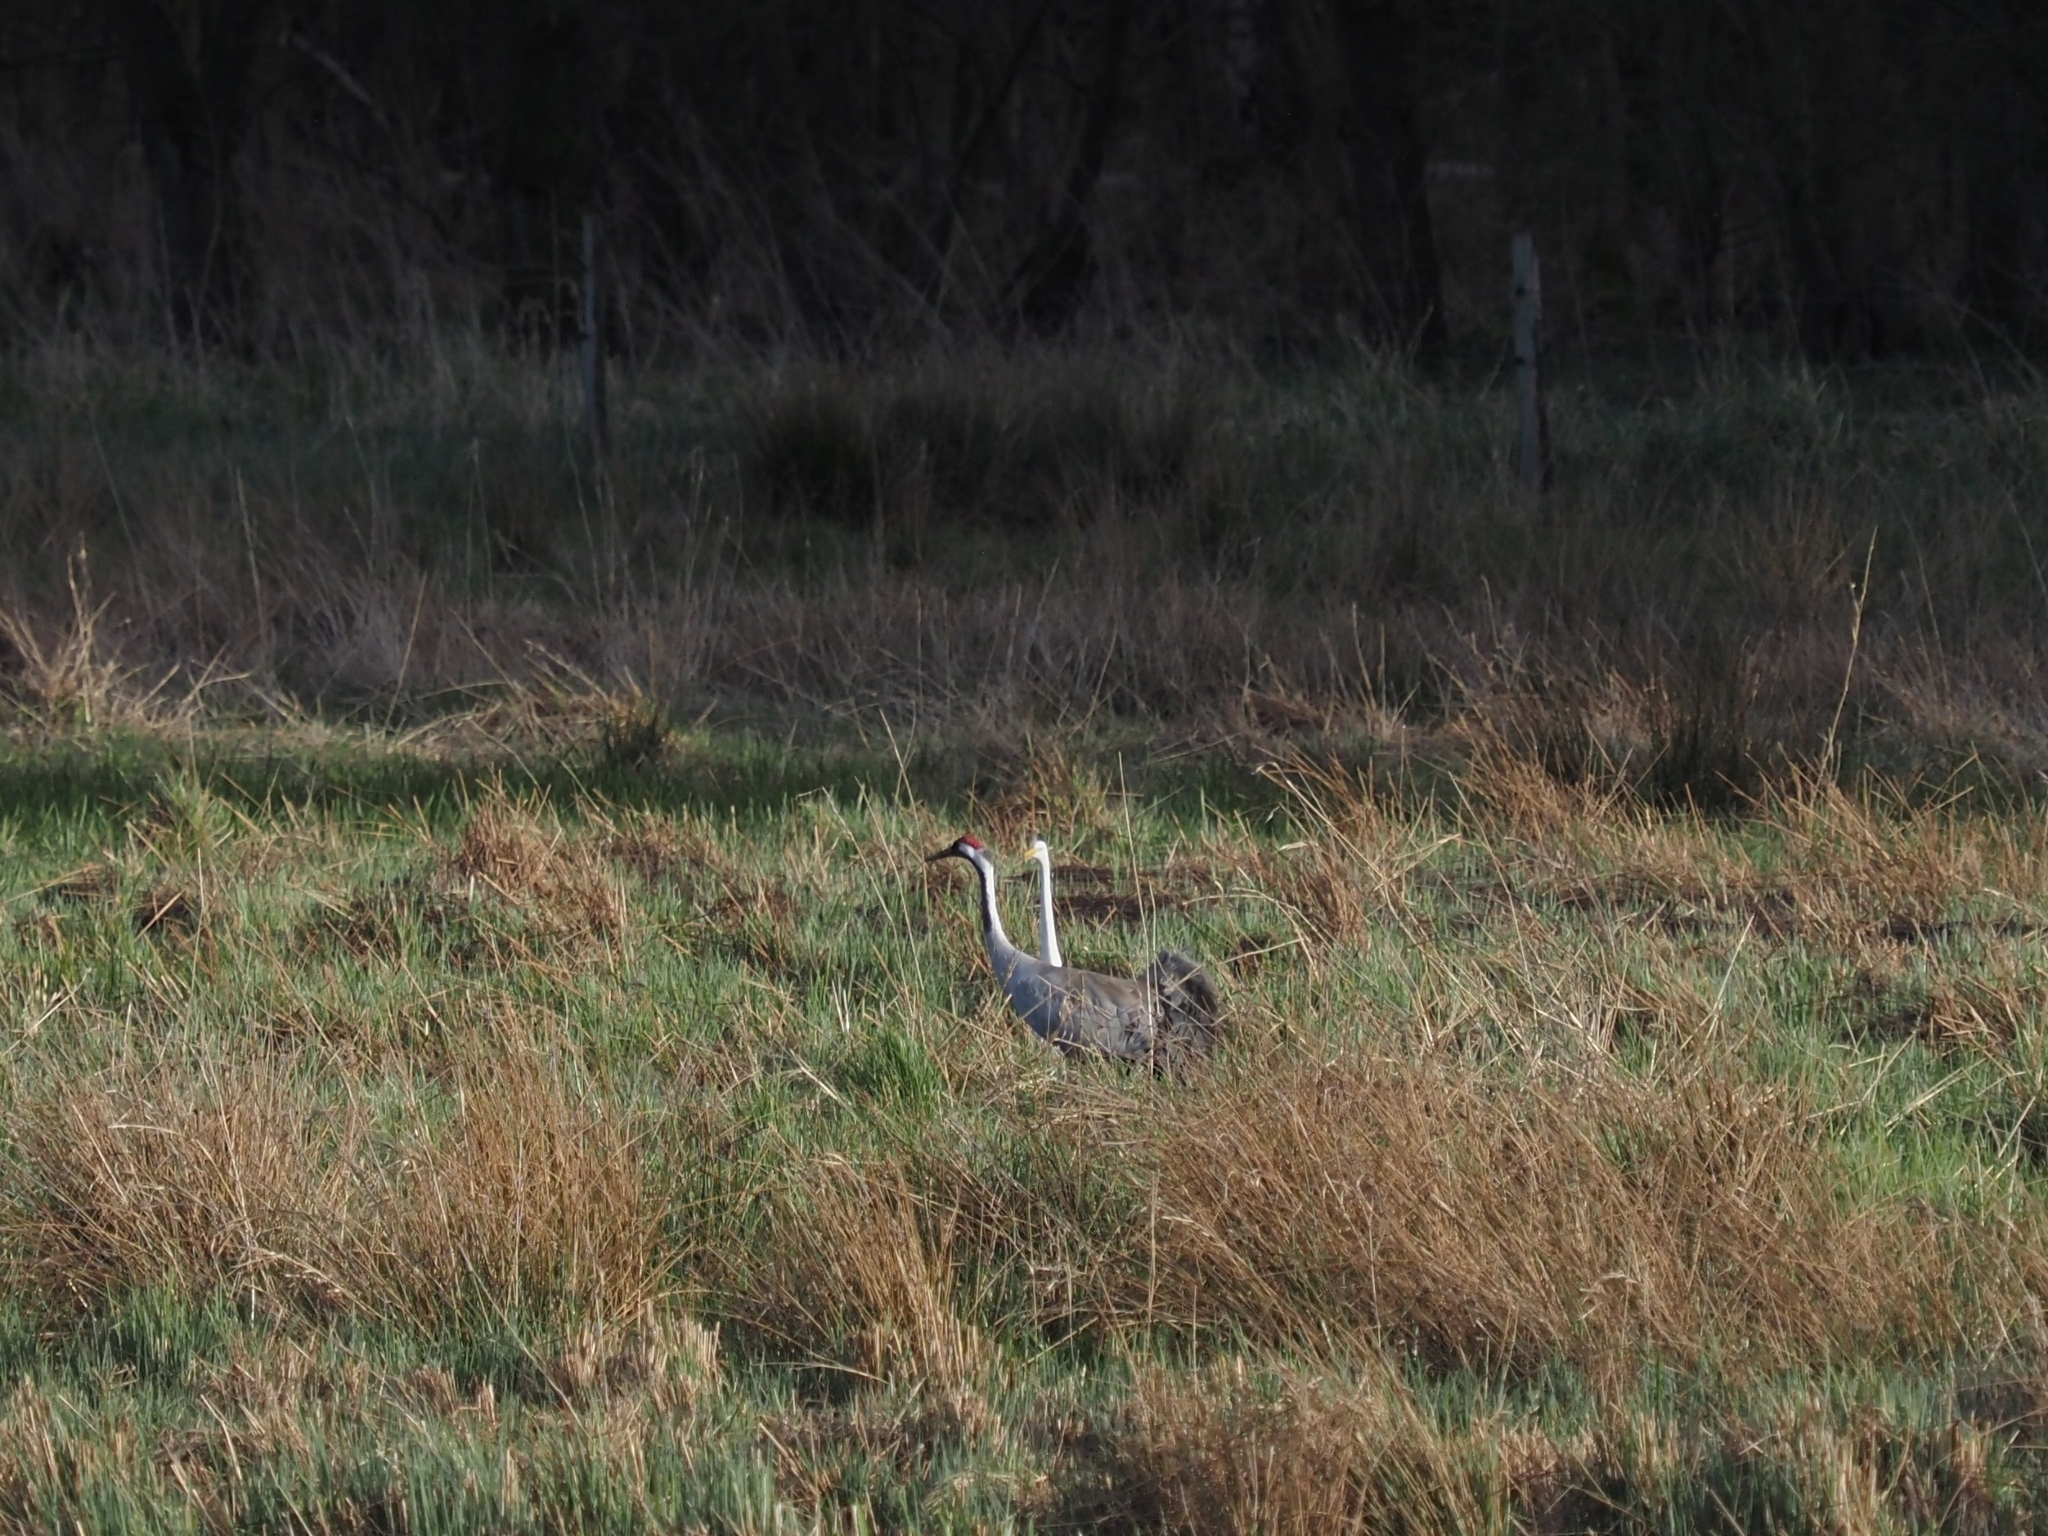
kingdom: Animalia
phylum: Chordata
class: Aves
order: Gruiformes
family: Gruidae
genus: Grus
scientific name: Grus grus
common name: Common crane
